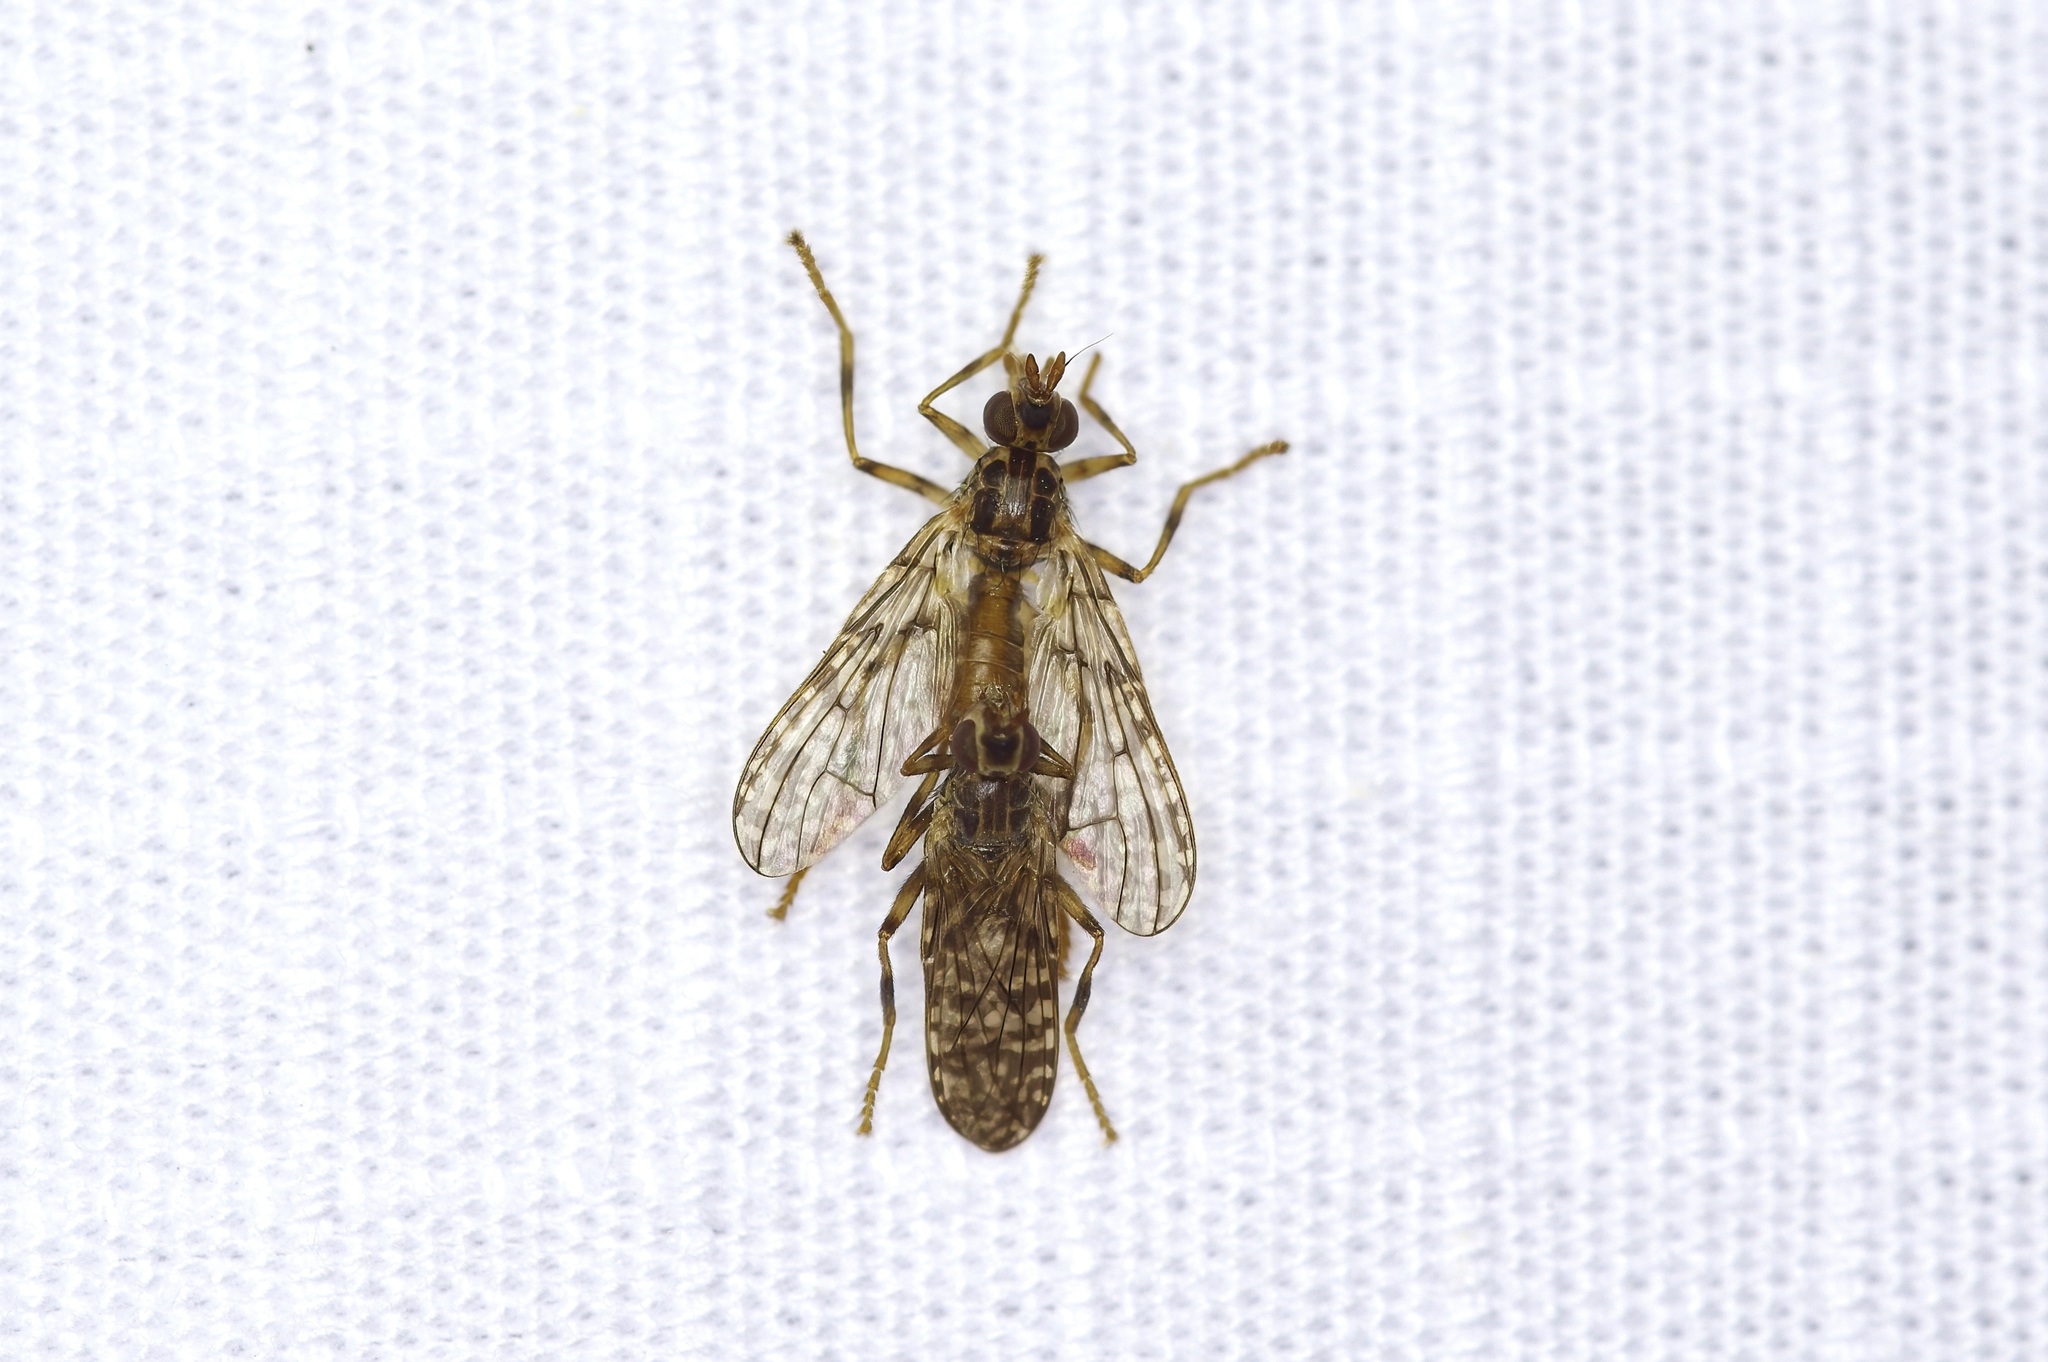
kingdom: Animalia
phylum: Arthropoda
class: Insecta
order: Diptera
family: Pyrgotidae
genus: Boreothrinax
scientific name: Boreothrinax
